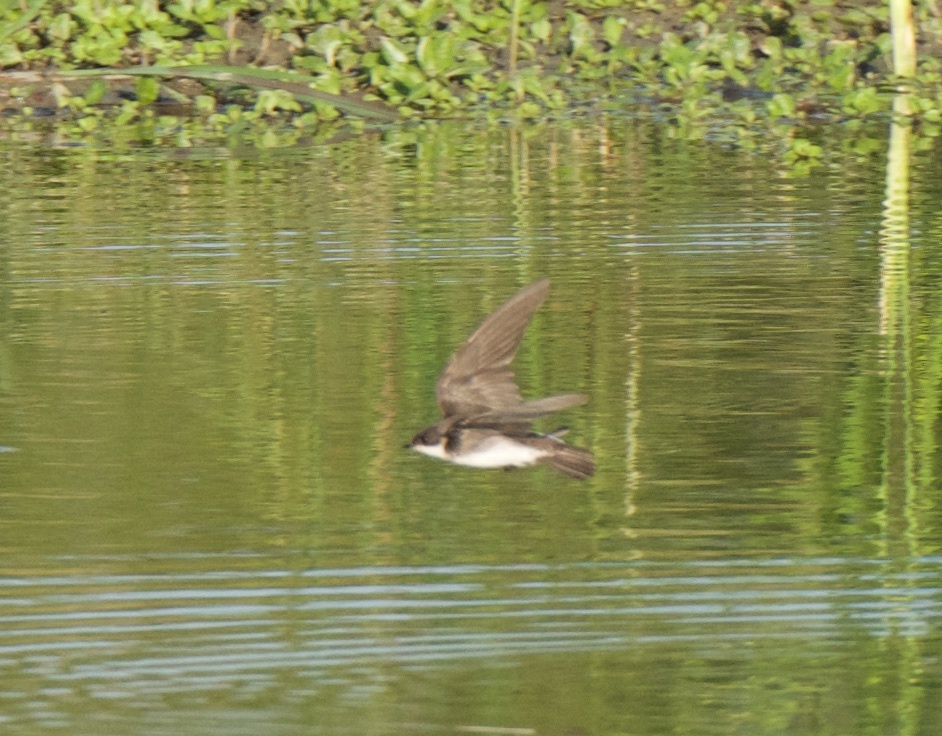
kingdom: Animalia
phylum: Chordata
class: Aves
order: Passeriformes
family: Hirundinidae
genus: Stelgidopteryx
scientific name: Stelgidopteryx serripennis
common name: Northern rough-winged swallow
